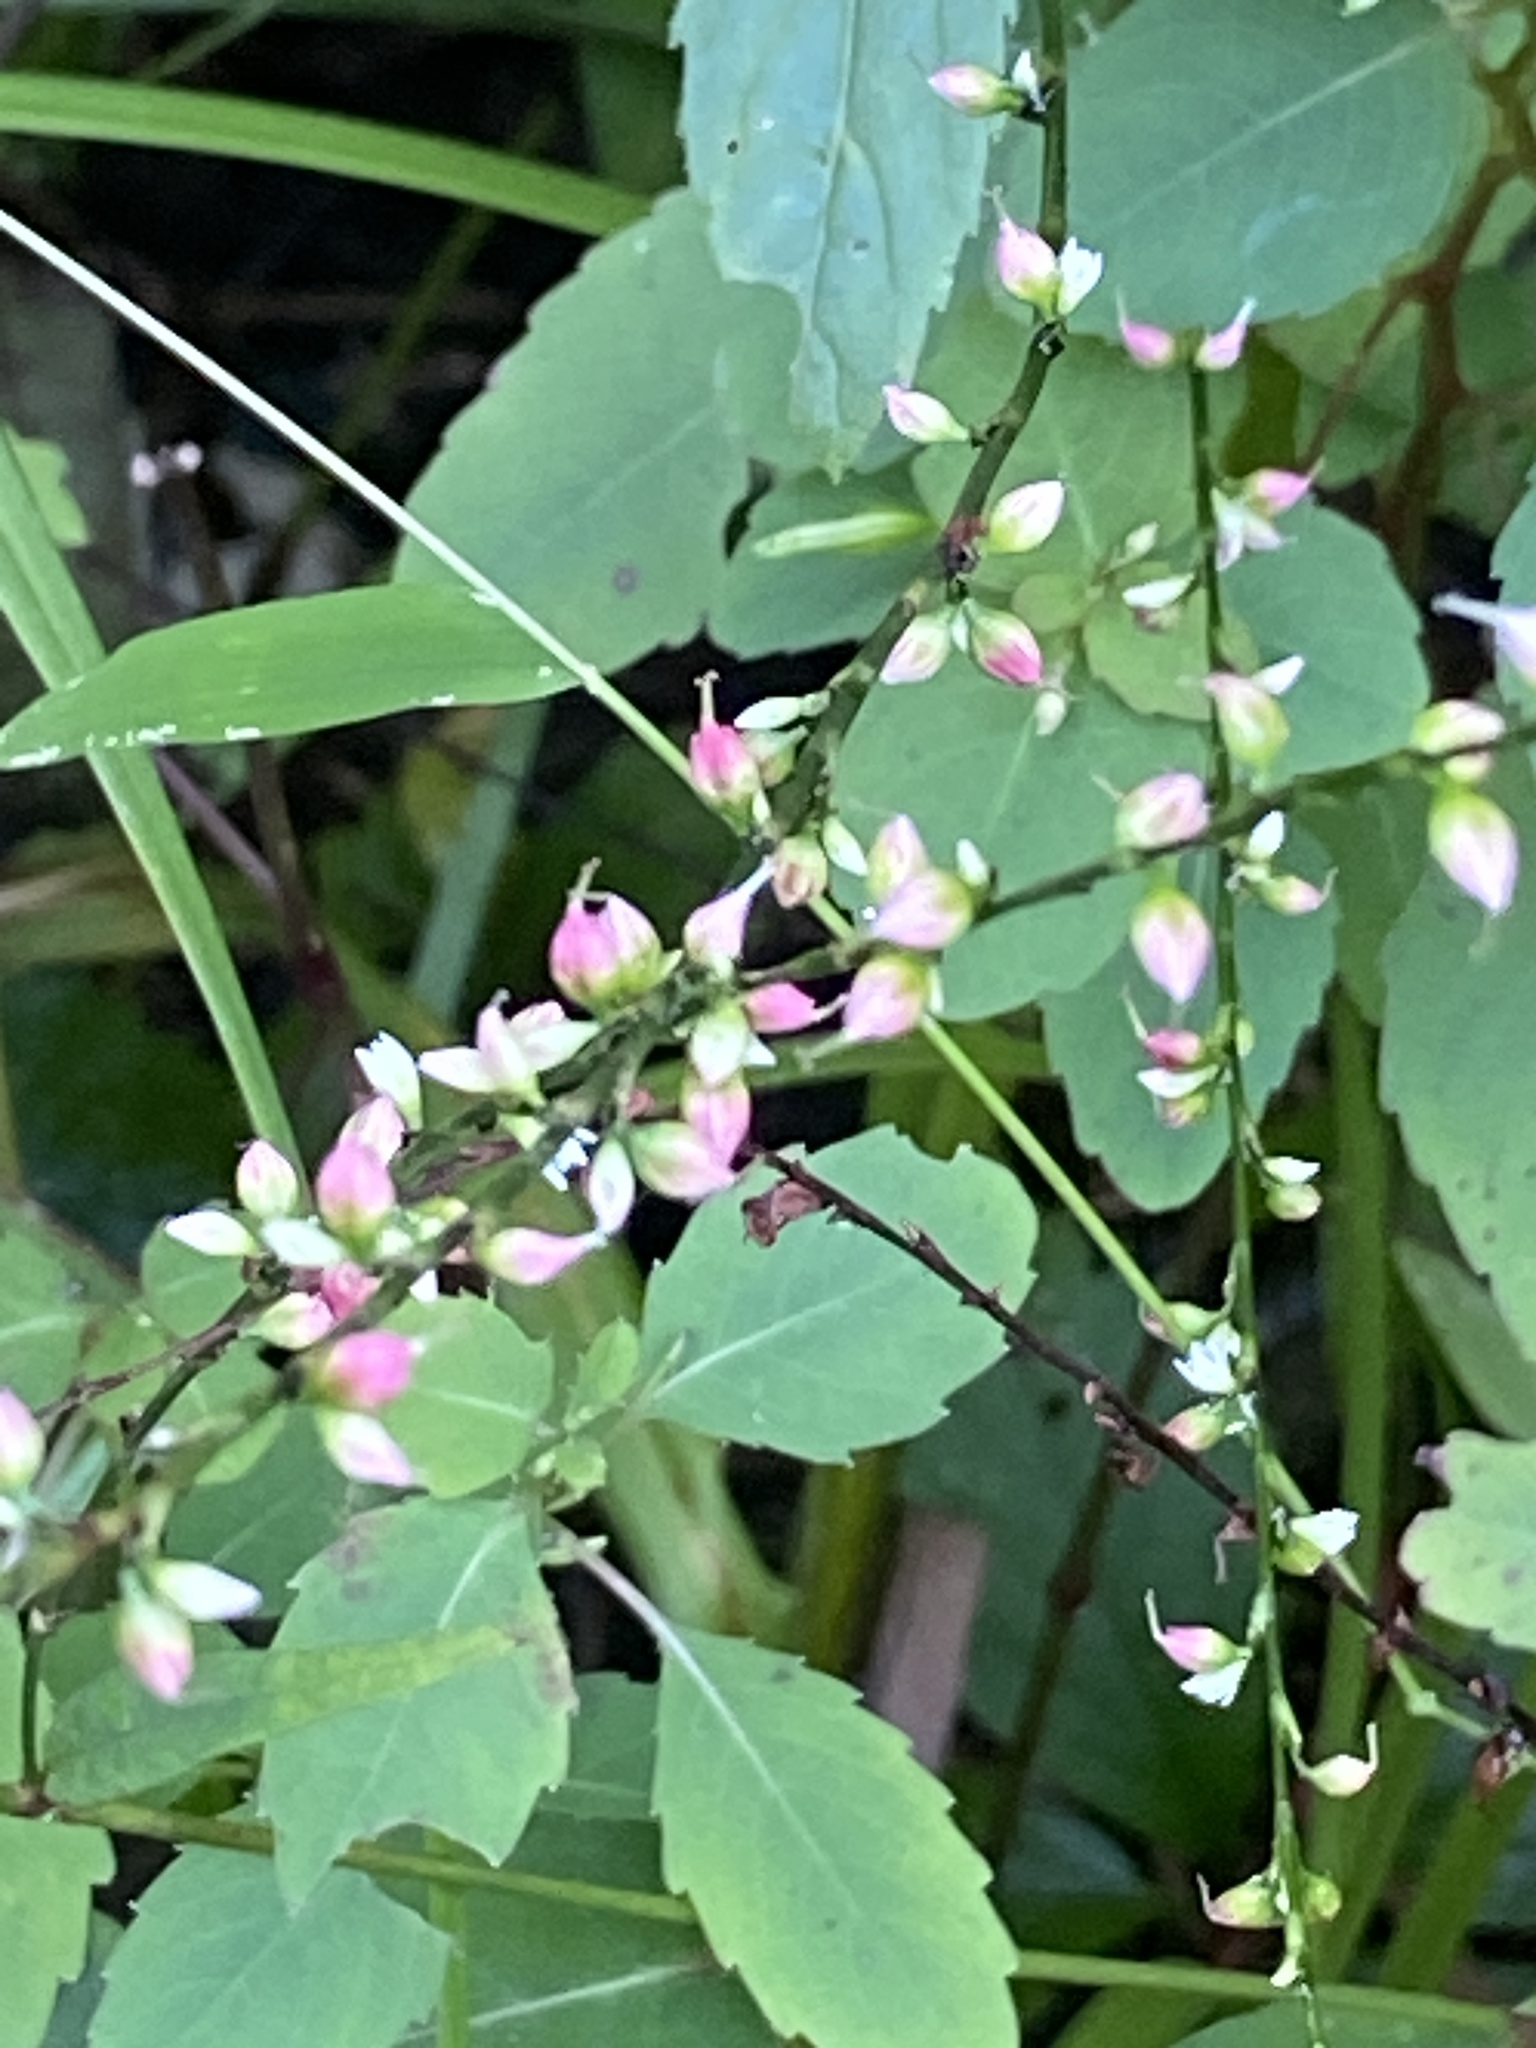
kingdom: Plantae
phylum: Tracheophyta
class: Magnoliopsida
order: Caryophyllales
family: Polygonaceae
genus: Persicaria
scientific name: Persicaria virginiana
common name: Jumpseed
